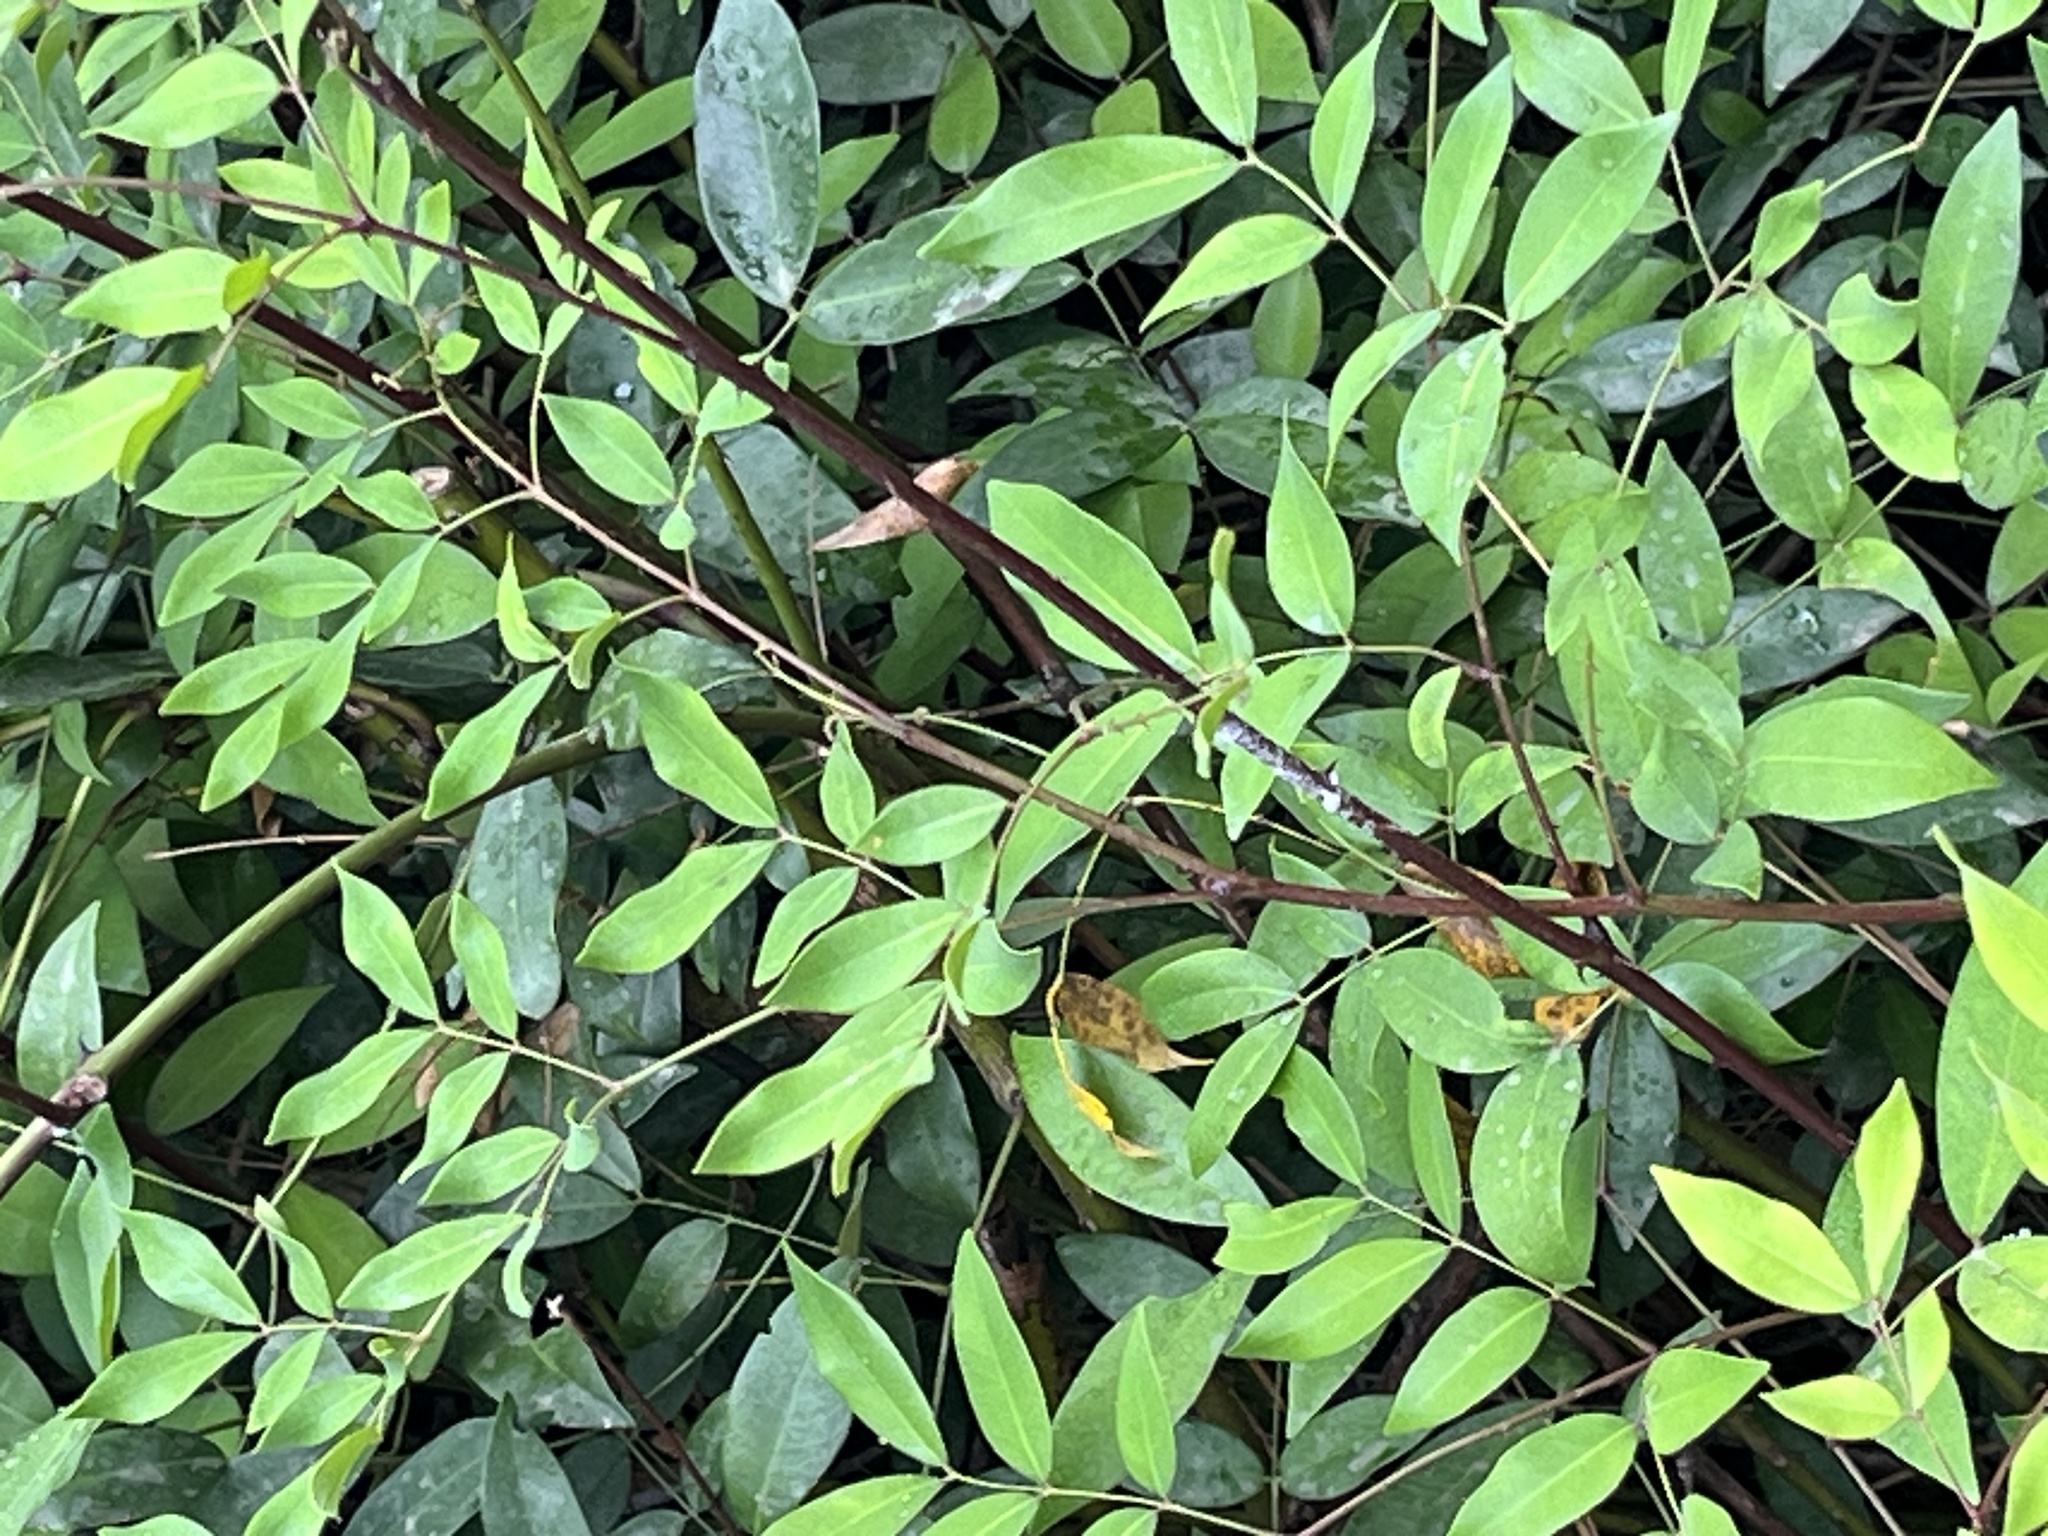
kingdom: Plantae
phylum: Tracheophyta
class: Magnoliopsida
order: Fabales
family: Fabaceae
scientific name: Fabaceae
